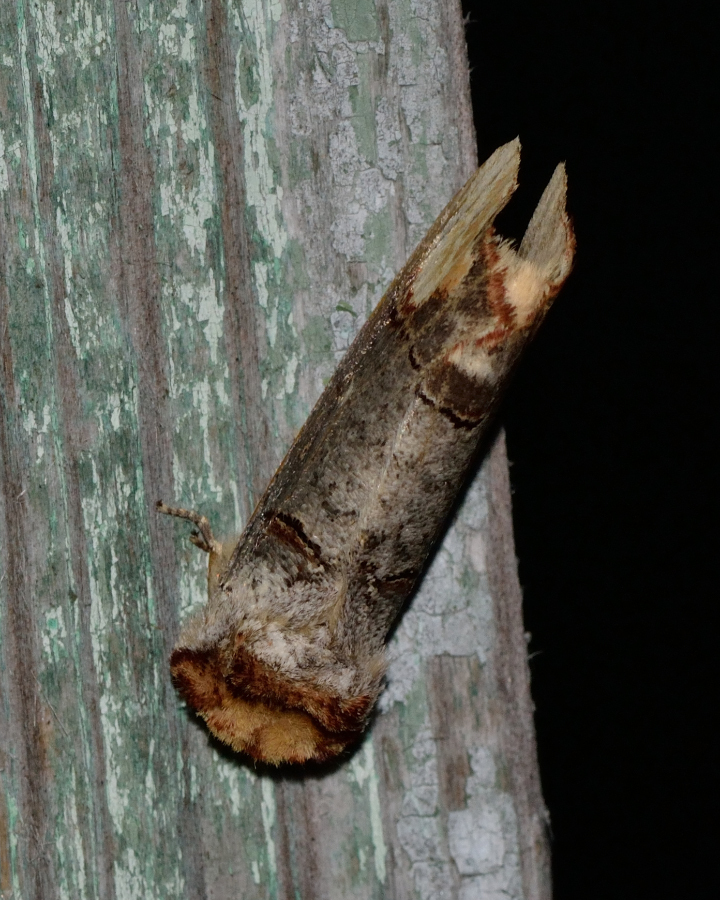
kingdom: Animalia
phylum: Arthropoda
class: Insecta
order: Lepidoptera
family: Notodontidae
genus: Phalera
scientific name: Phalera bucephala
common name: Buff-tip
